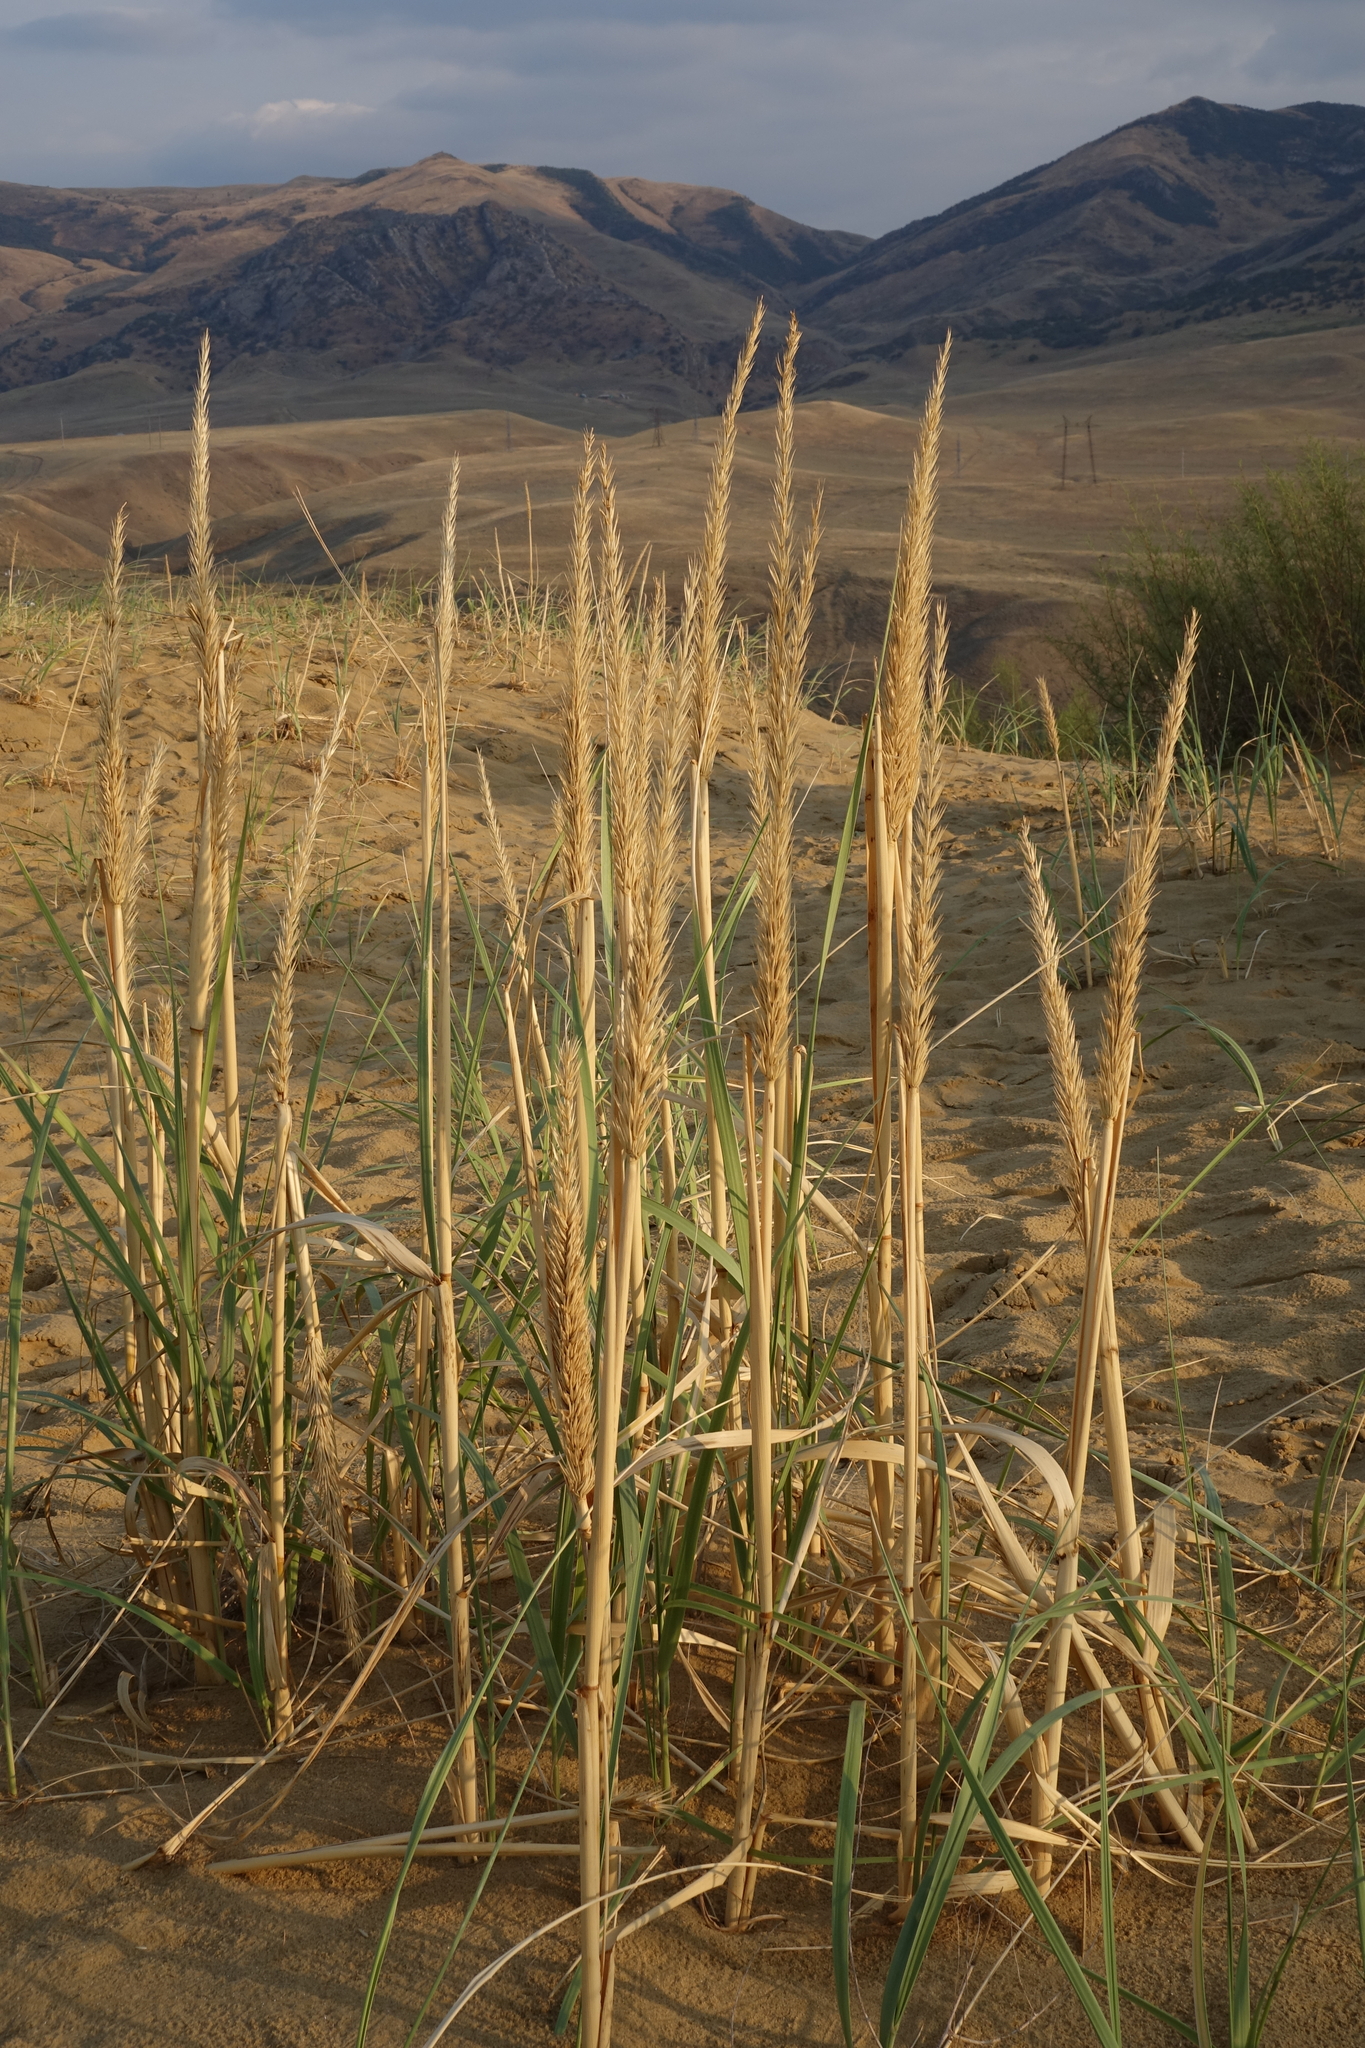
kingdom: Plantae
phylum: Tracheophyta
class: Liliopsida
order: Poales
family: Poaceae
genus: Leymus
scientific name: Leymus racemosus
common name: Mammoth wildrye
